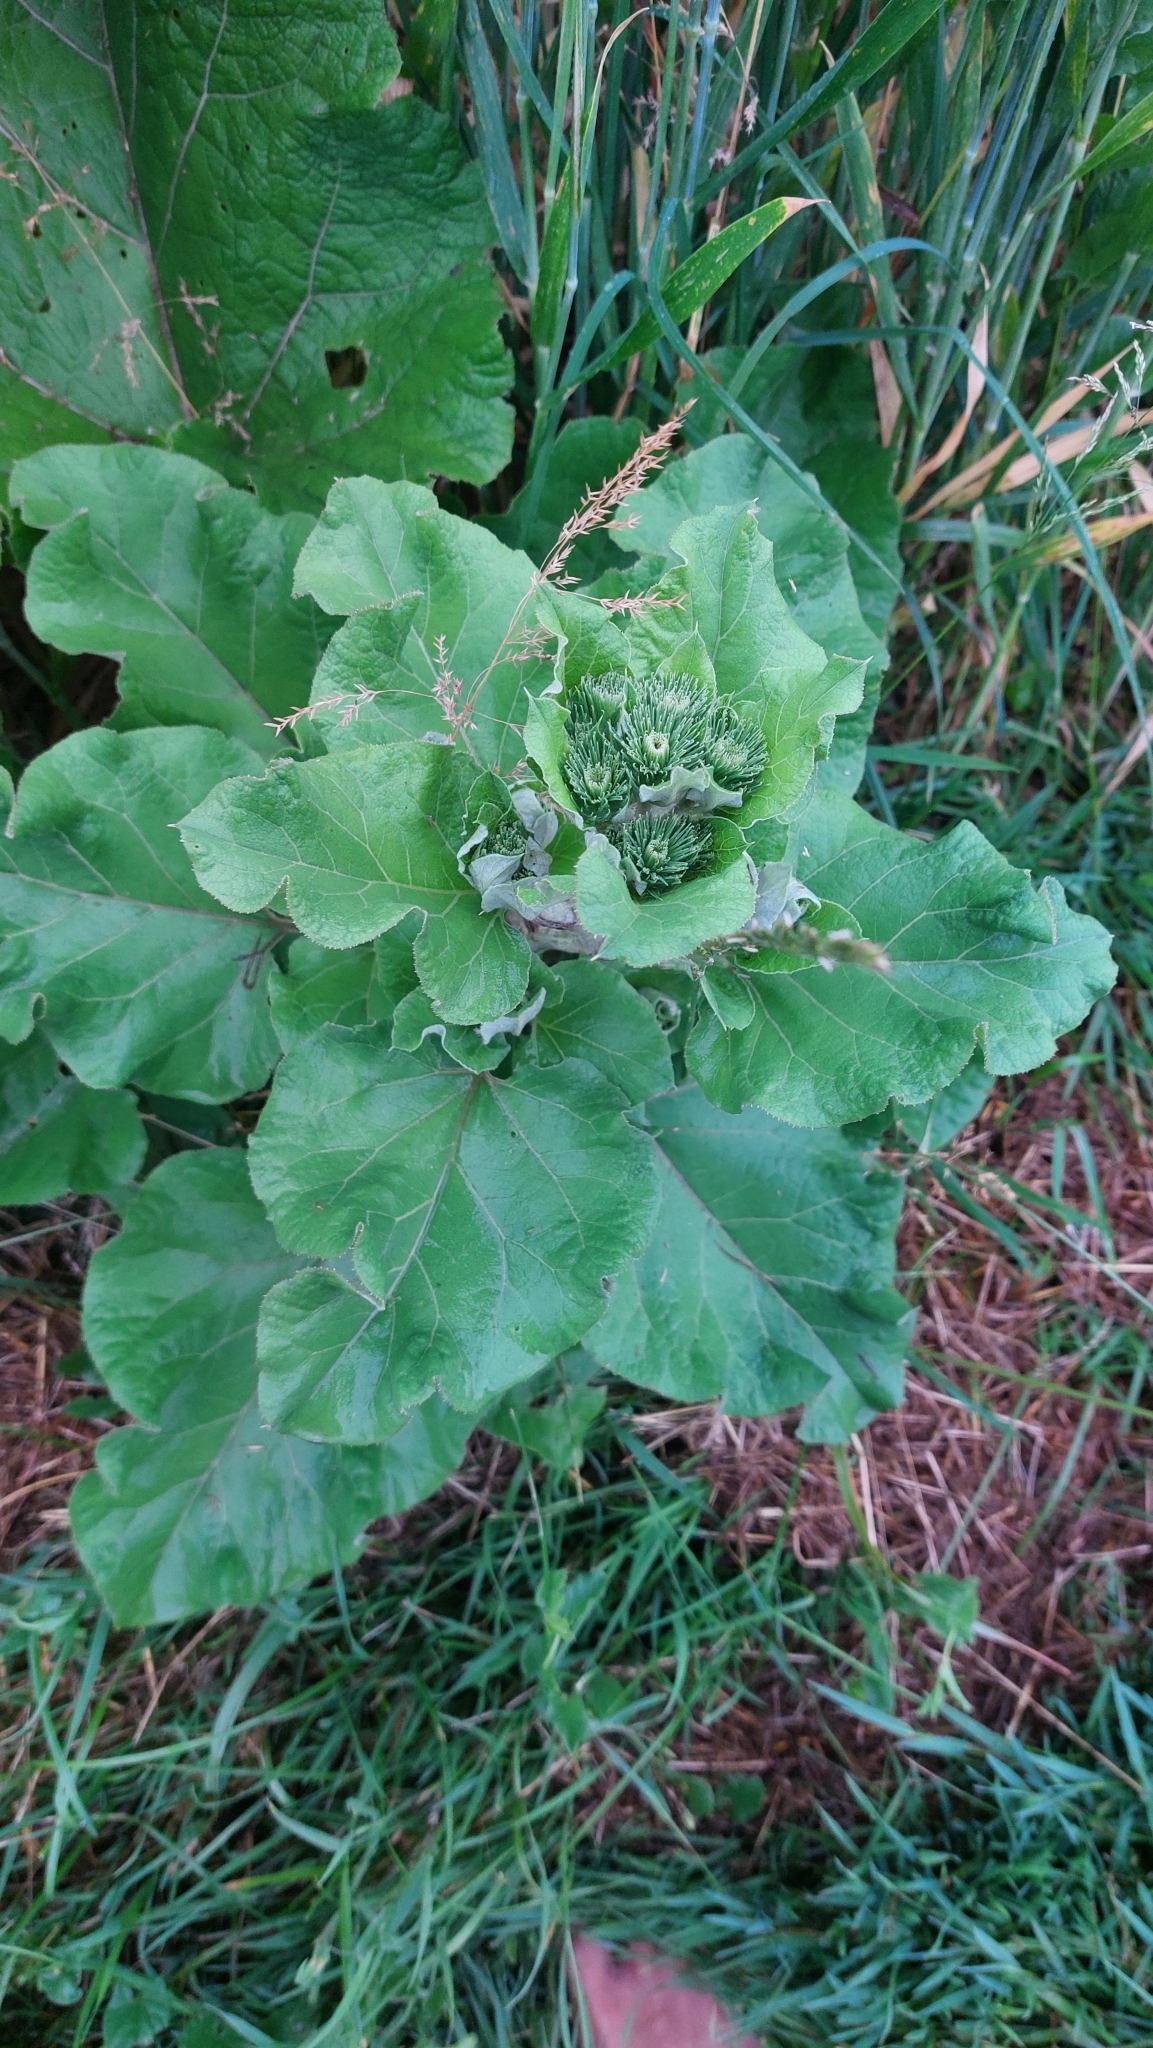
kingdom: Plantae
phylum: Tracheophyta
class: Magnoliopsida
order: Asterales
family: Asteraceae
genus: Arctium
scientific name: Arctium
